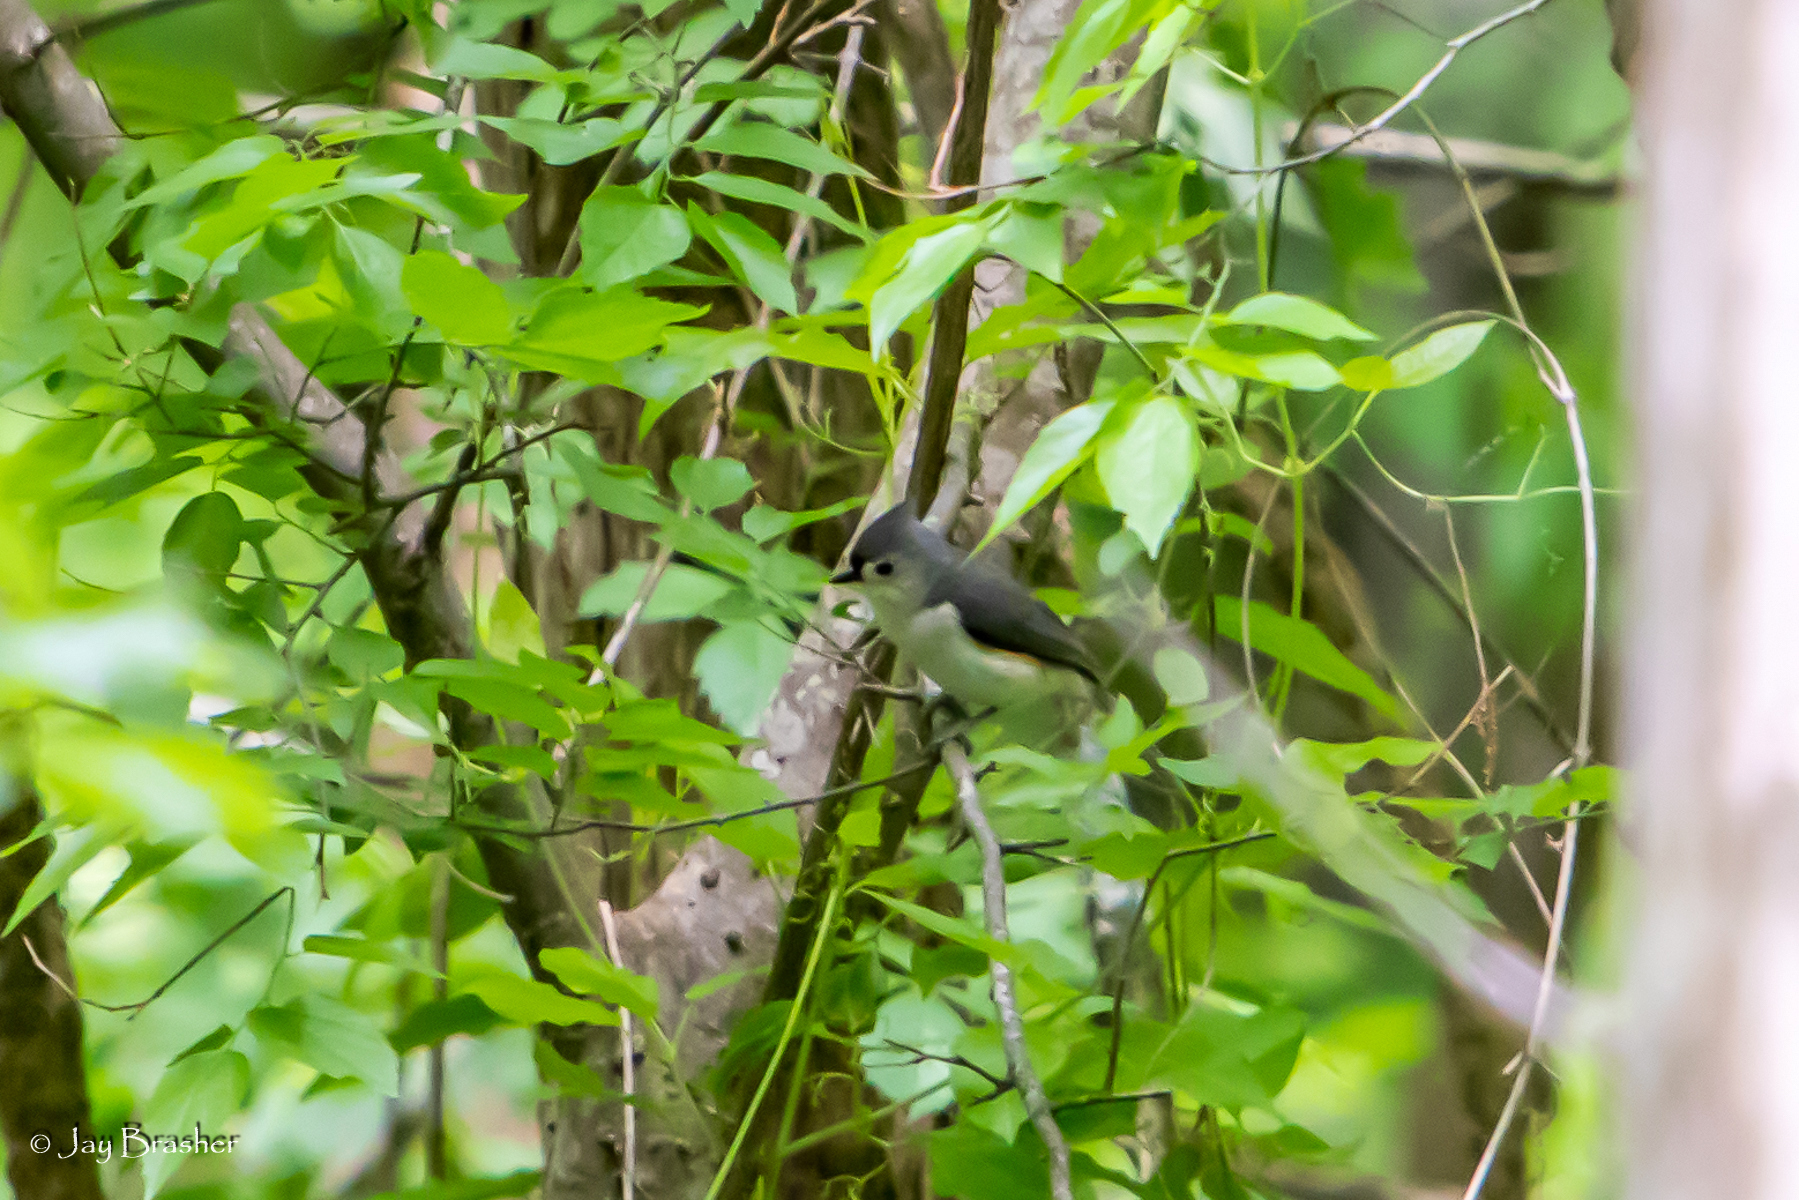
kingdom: Animalia
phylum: Chordata
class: Aves
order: Passeriformes
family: Paridae
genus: Baeolophus
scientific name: Baeolophus bicolor
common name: Tufted titmouse
